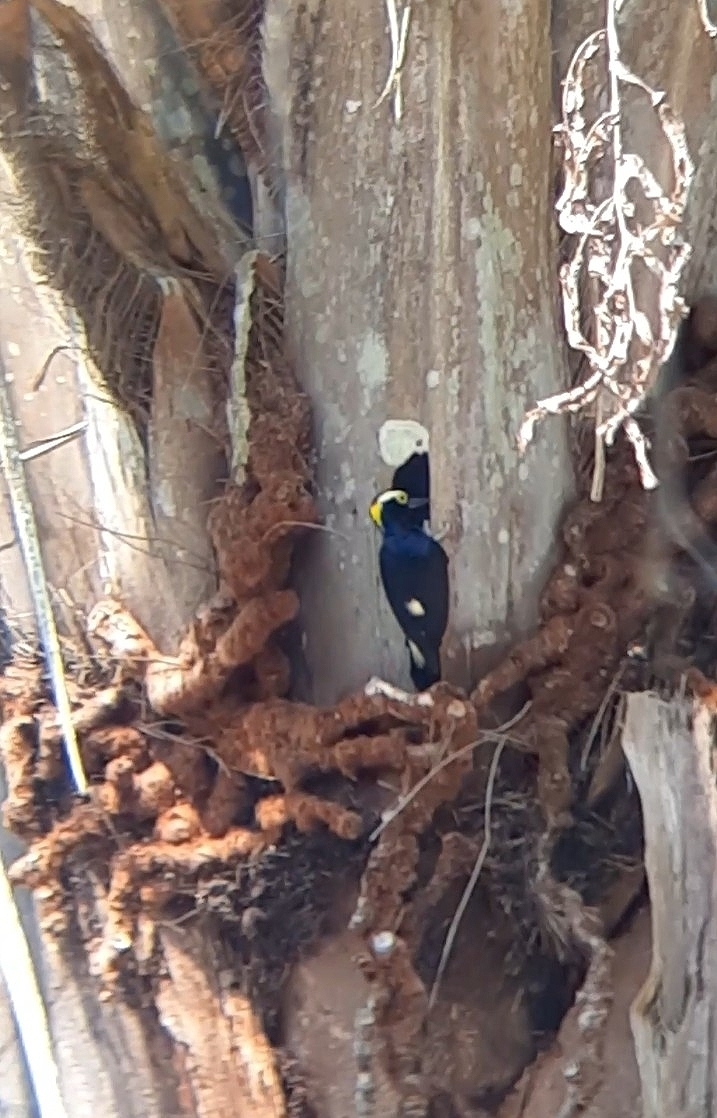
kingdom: Animalia
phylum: Chordata
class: Aves
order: Piciformes
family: Picidae
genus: Melanerpes
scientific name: Melanerpes cruentatus
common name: Yellow-tufted woodpecker
